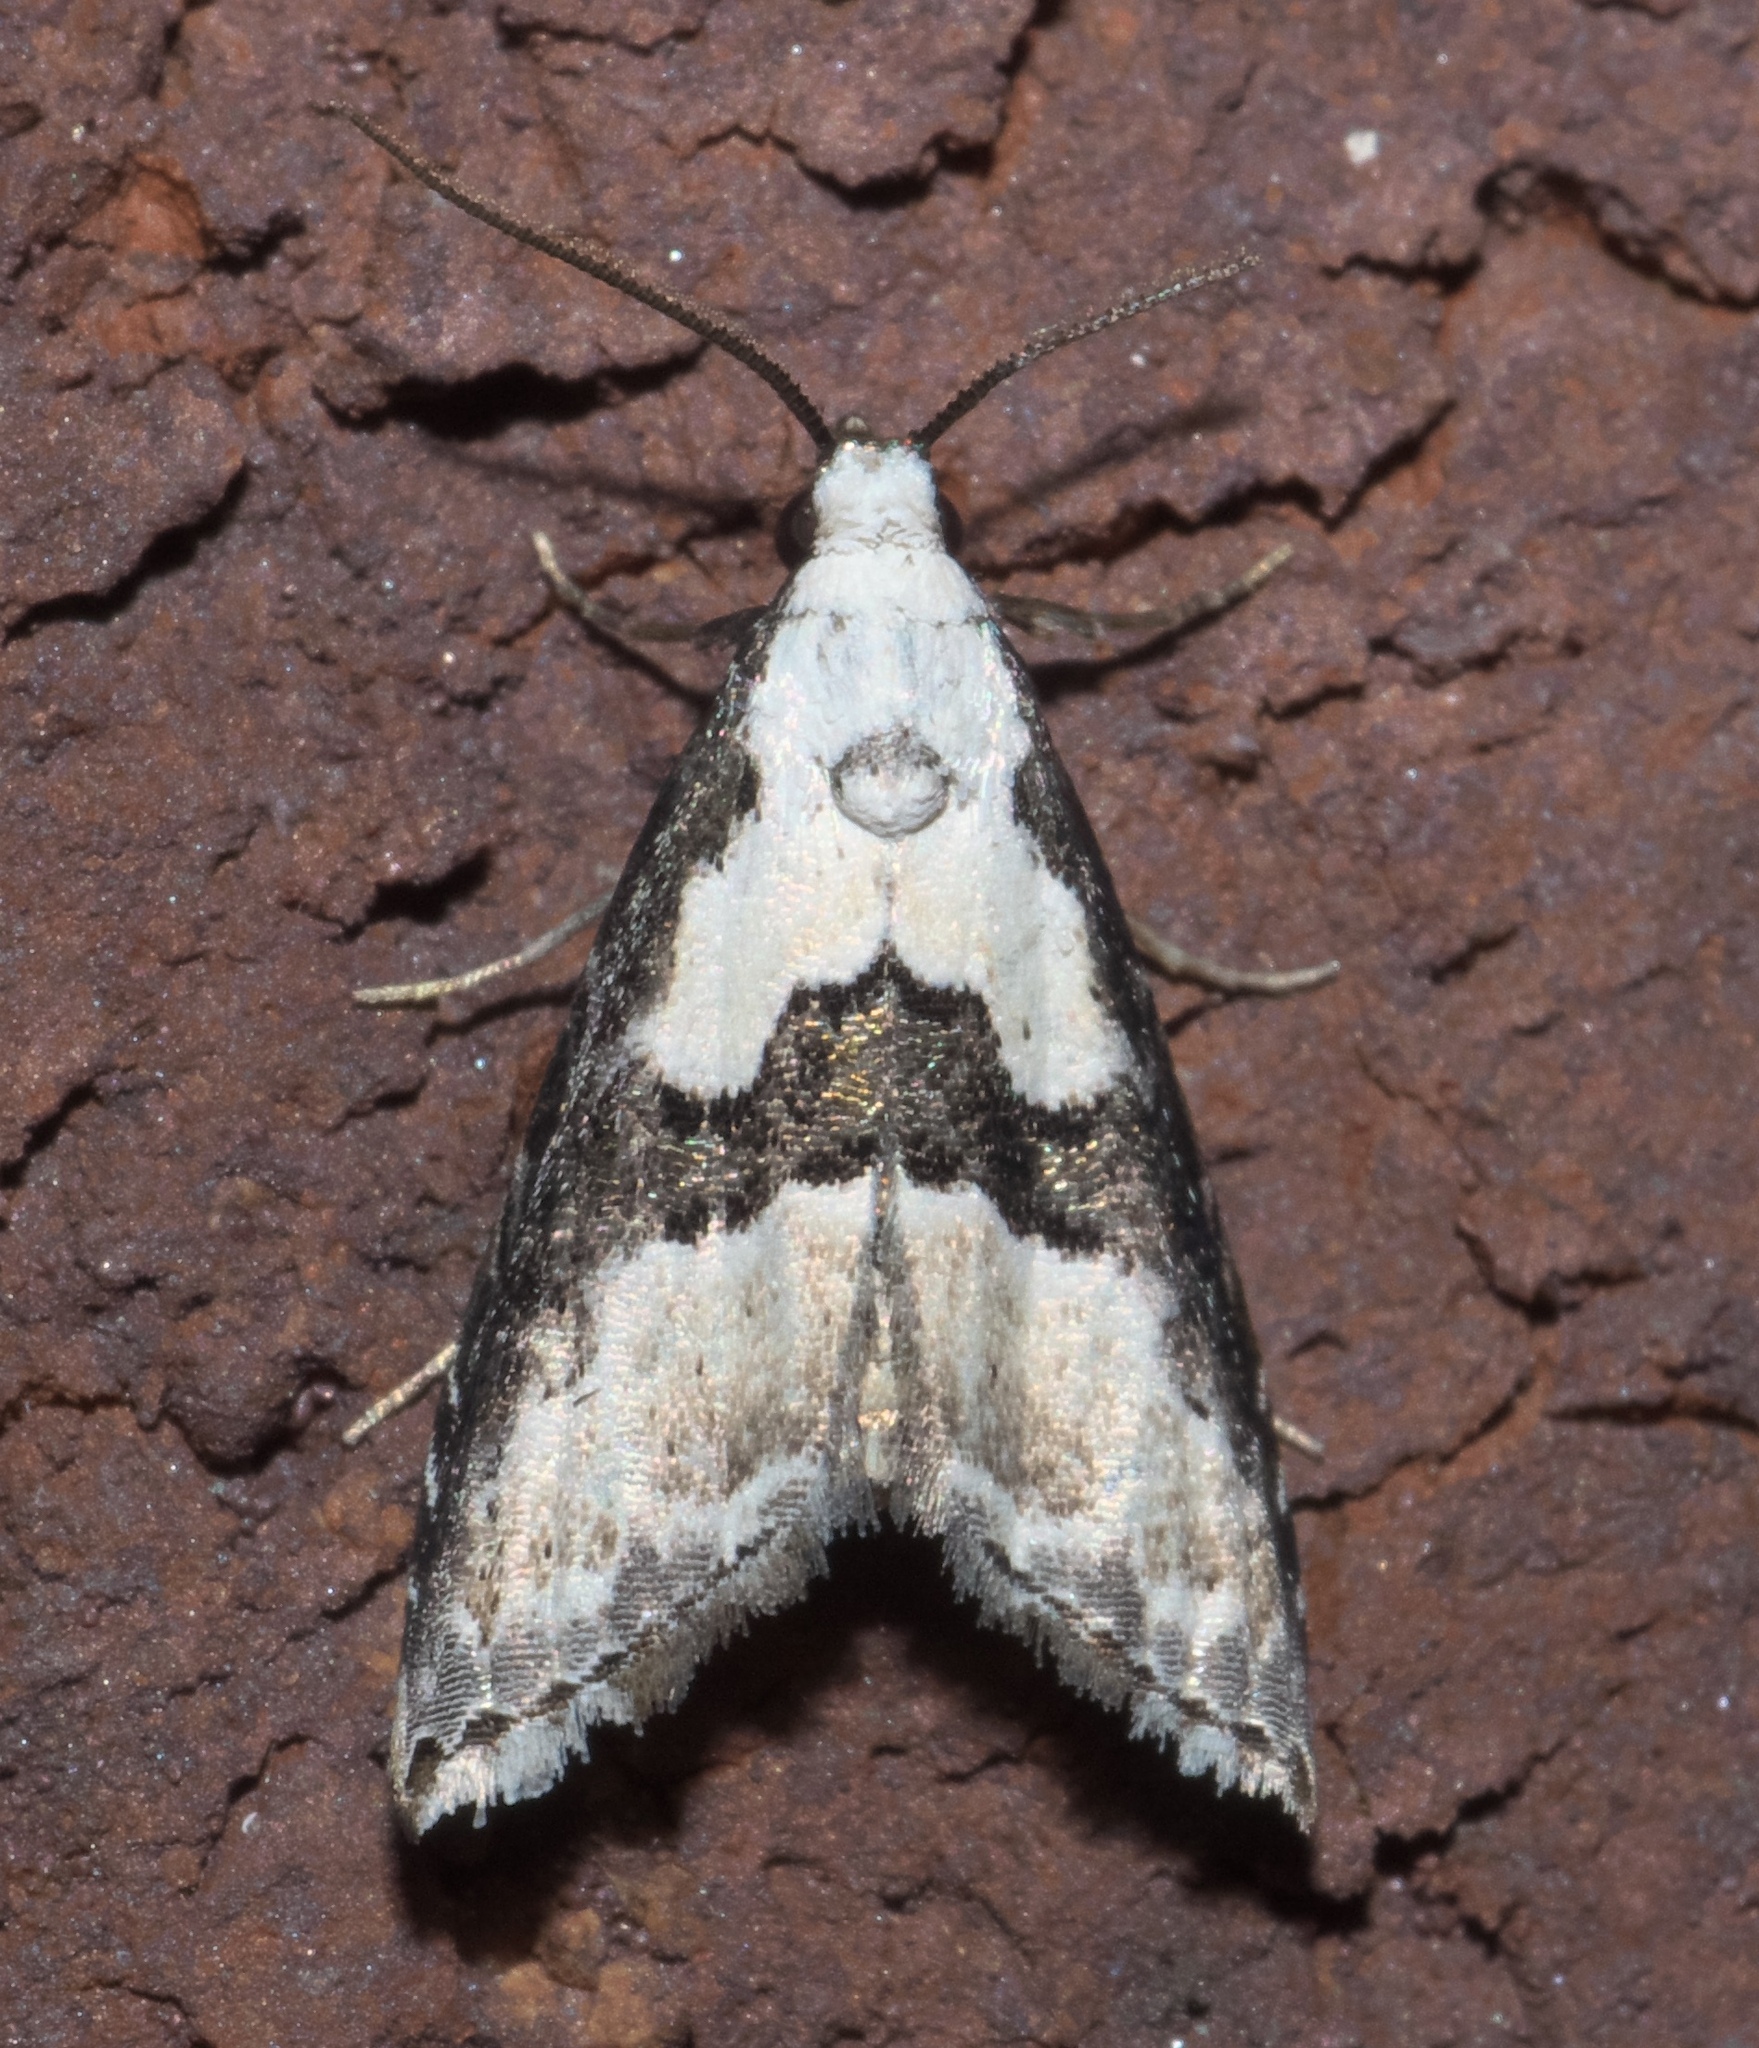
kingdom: Animalia
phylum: Arthropoda
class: Insecta
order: Lepidoptera
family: Noctuidae
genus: Nigetia
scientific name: Nigetia formosalis
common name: Thin-winged owlet
